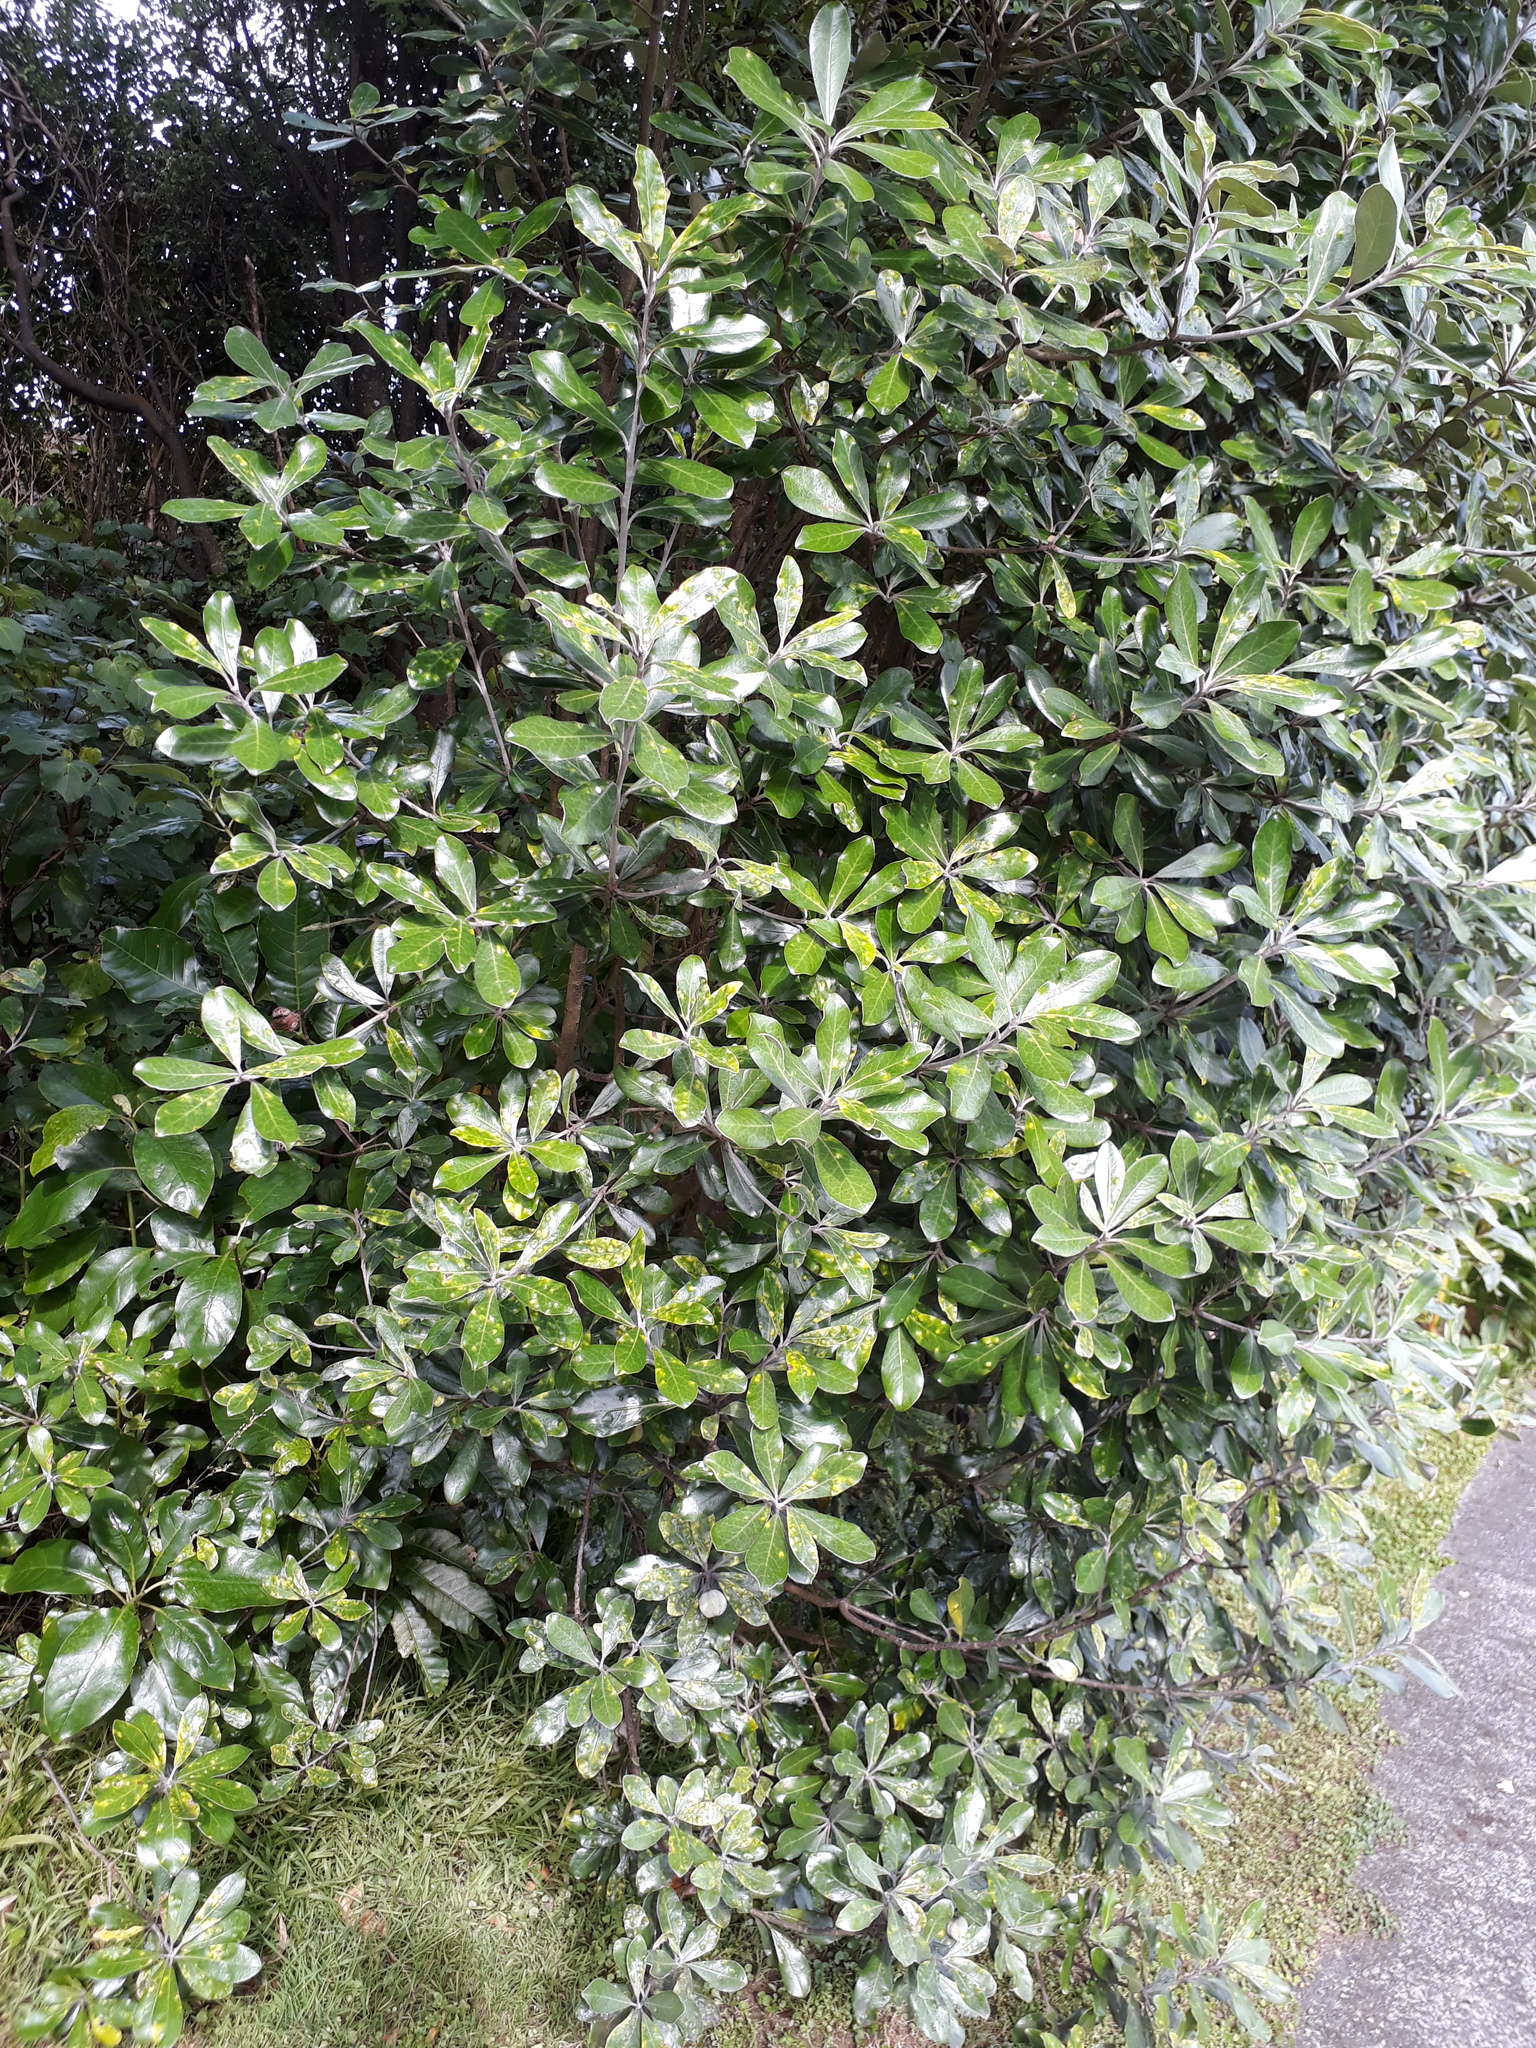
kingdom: Plantae
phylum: Tracheophyta
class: Magnoliopsida
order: Apiales
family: Pittosporaceae
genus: Pittosporum
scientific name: Pittosporum crassifolium
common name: Karo
